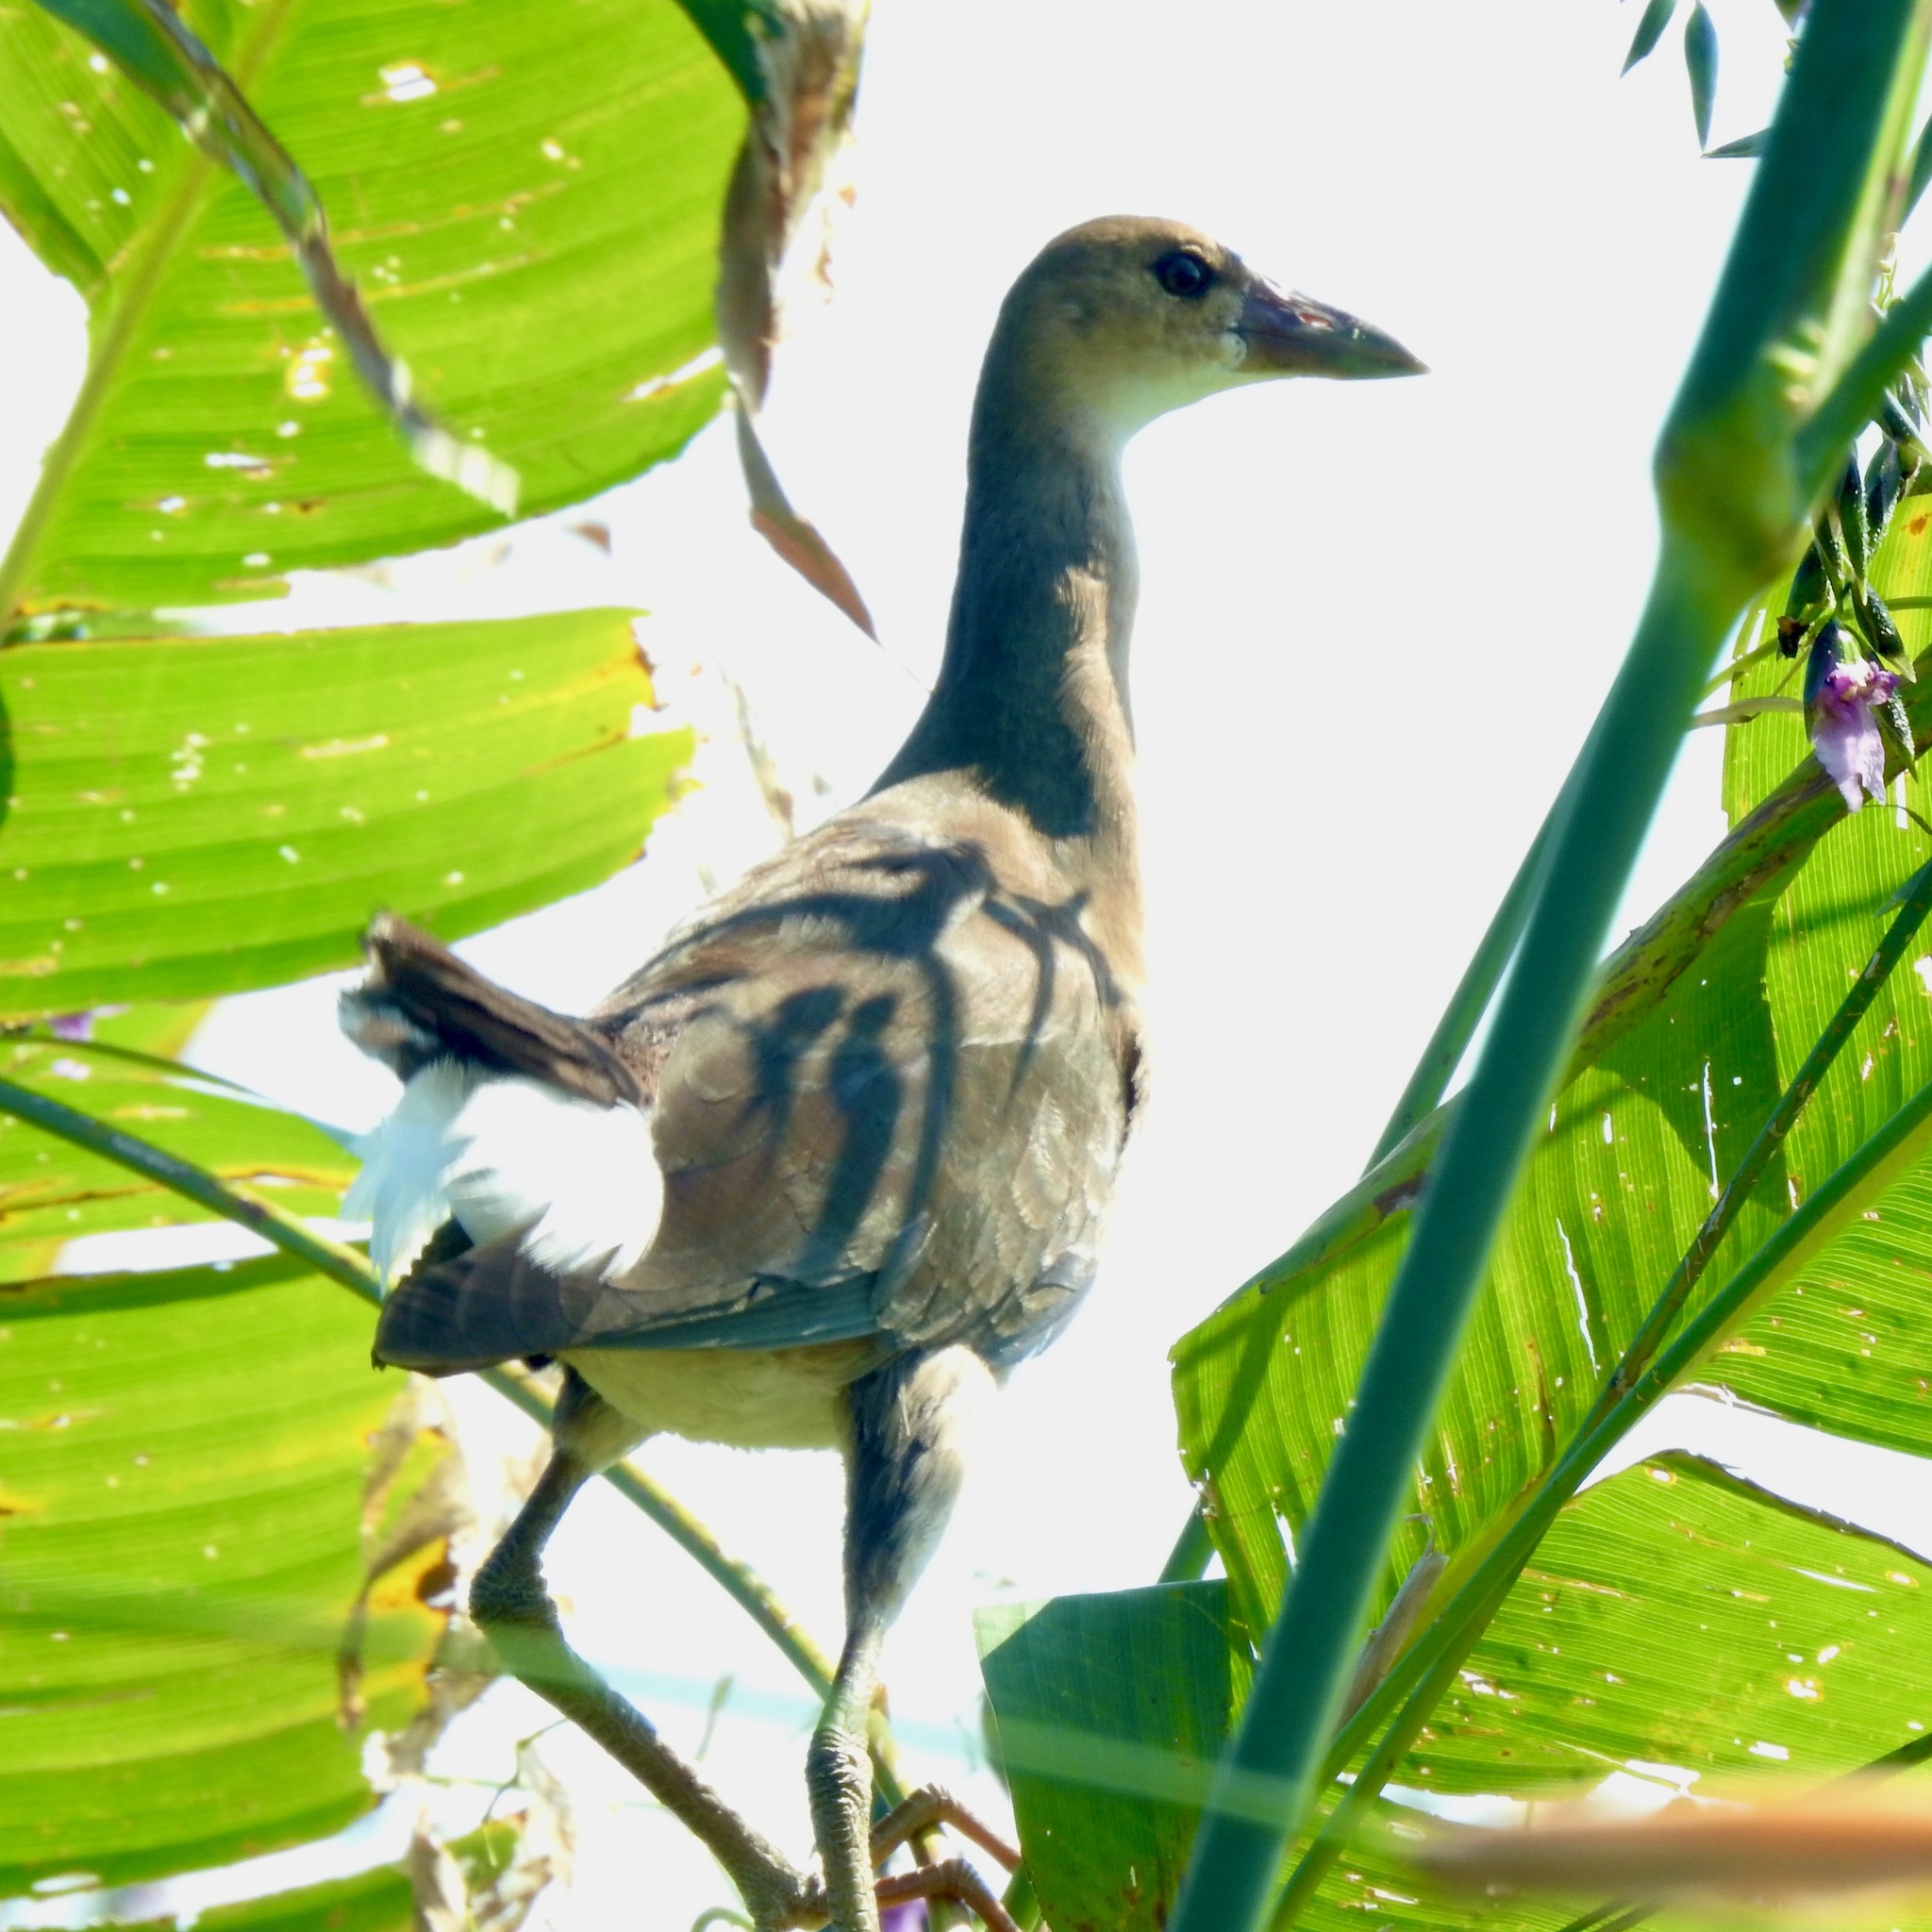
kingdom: Animalia
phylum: Chordata
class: Aves
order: Gruiformes
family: Rallidae
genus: Porphyrio
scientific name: Porphyrio martinica
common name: Purple gallinule
